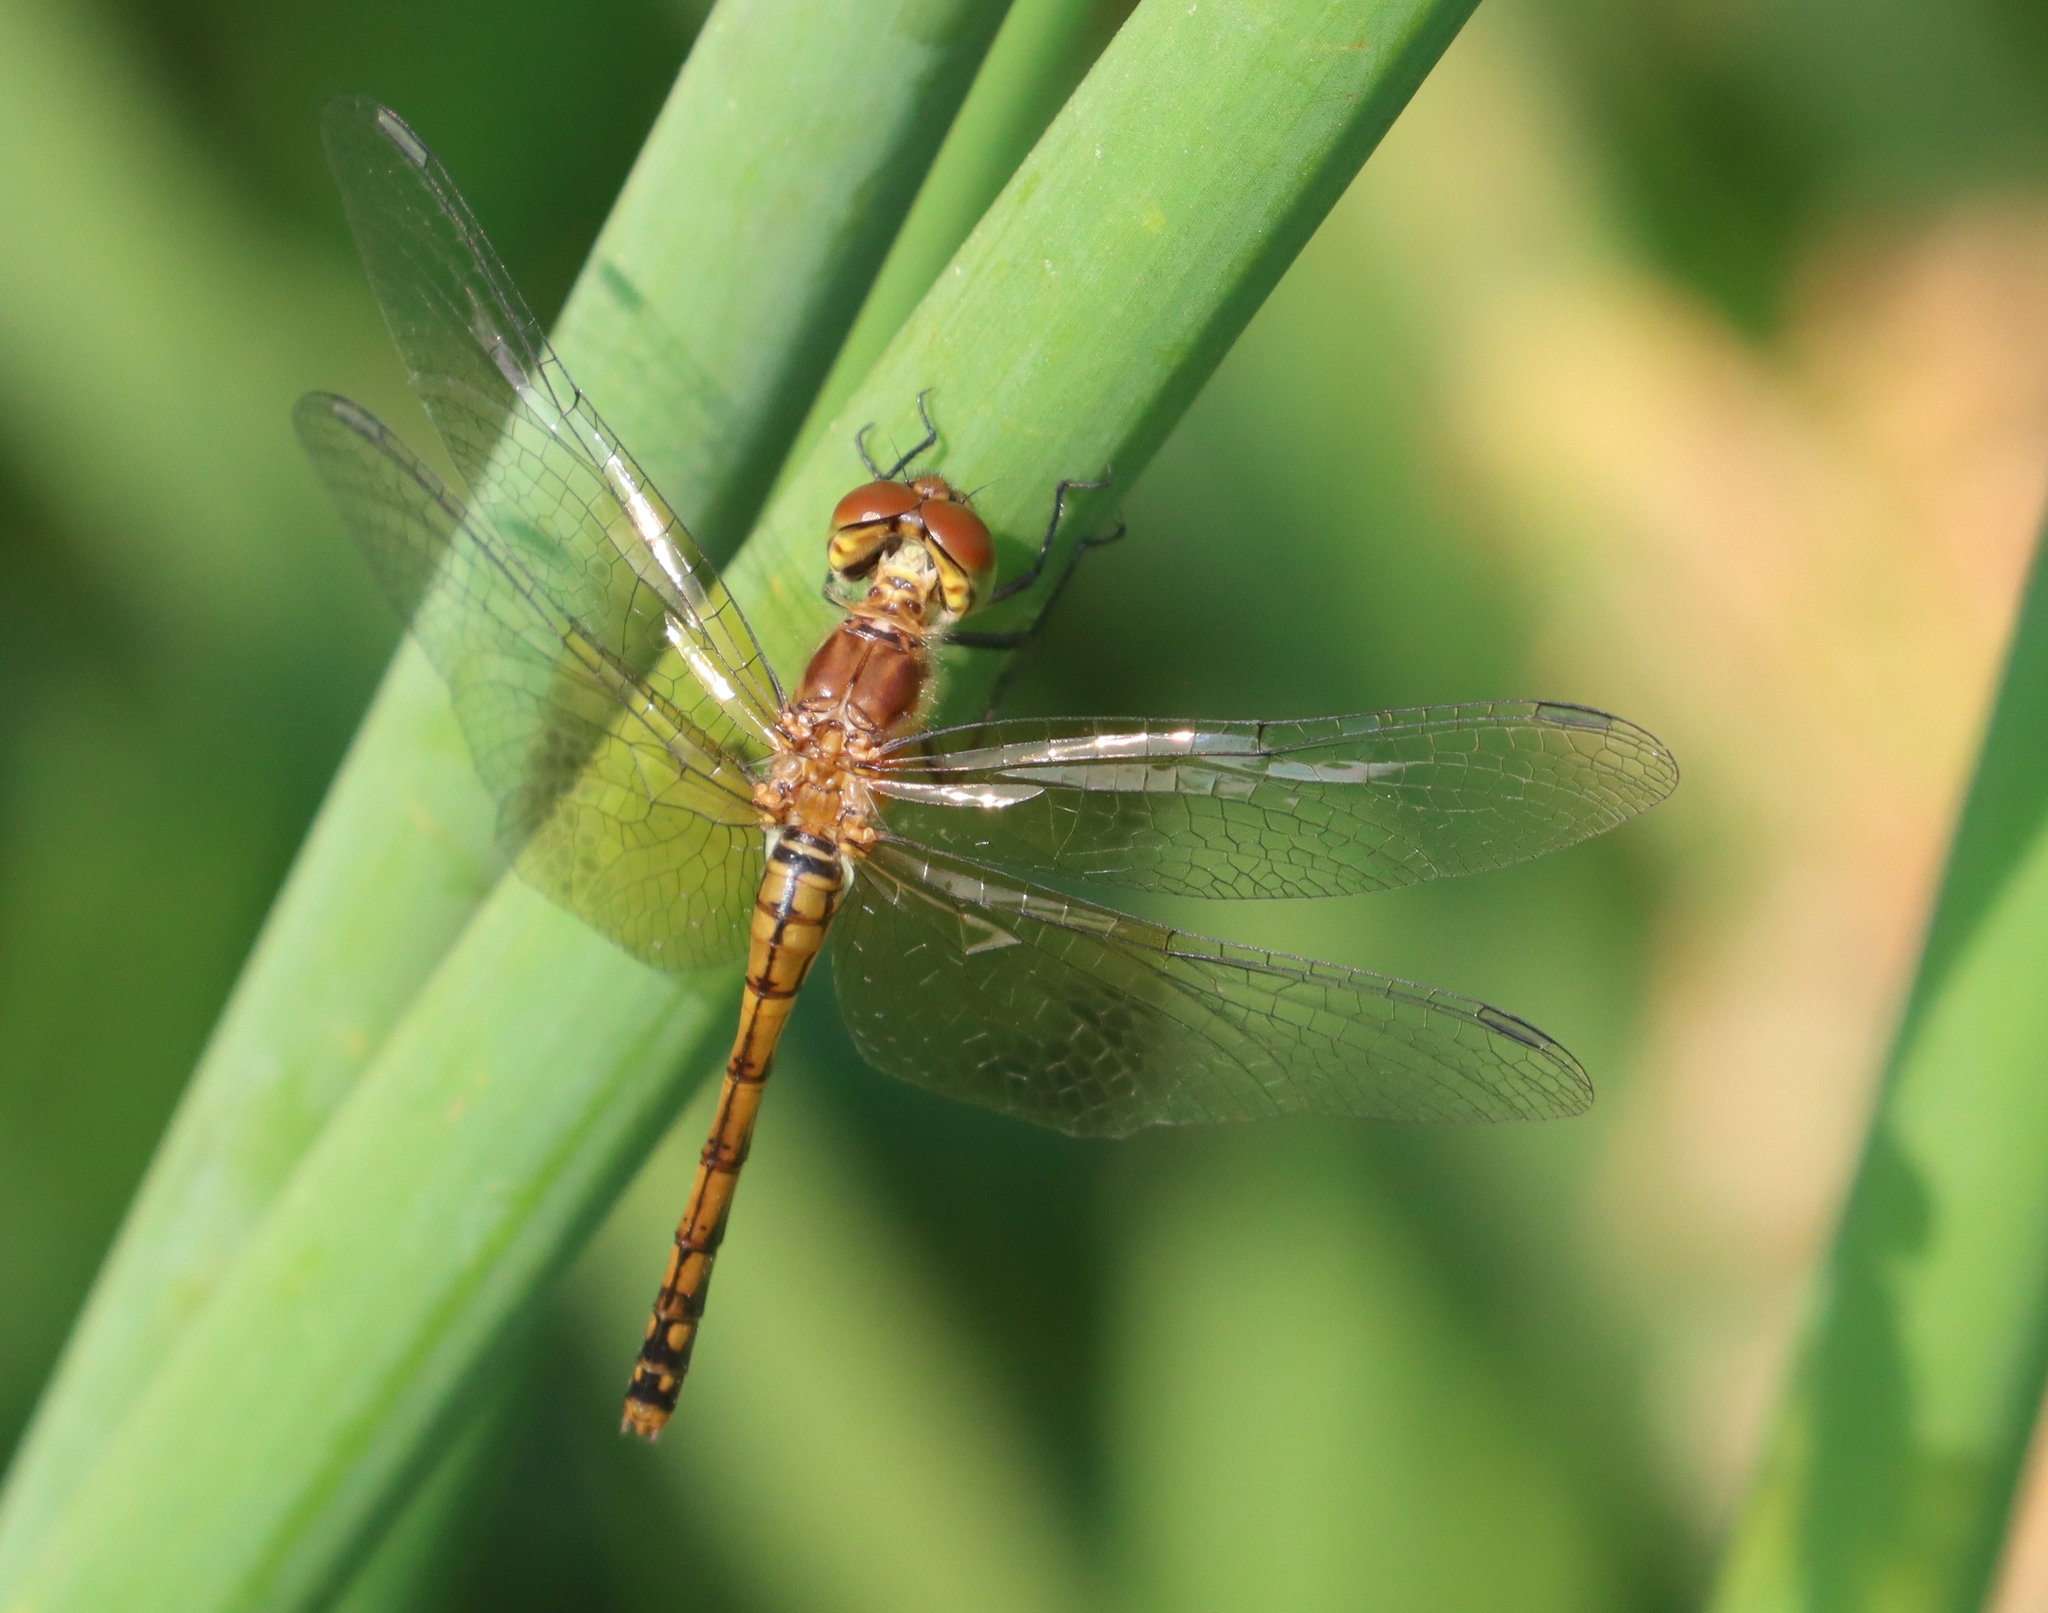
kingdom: Animalia
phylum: Arthropoda
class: Insecta
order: Odonata
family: Libellulidae
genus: Sympetrum
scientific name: Sympetrum semicinctum
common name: Band-winged meadowhawk
